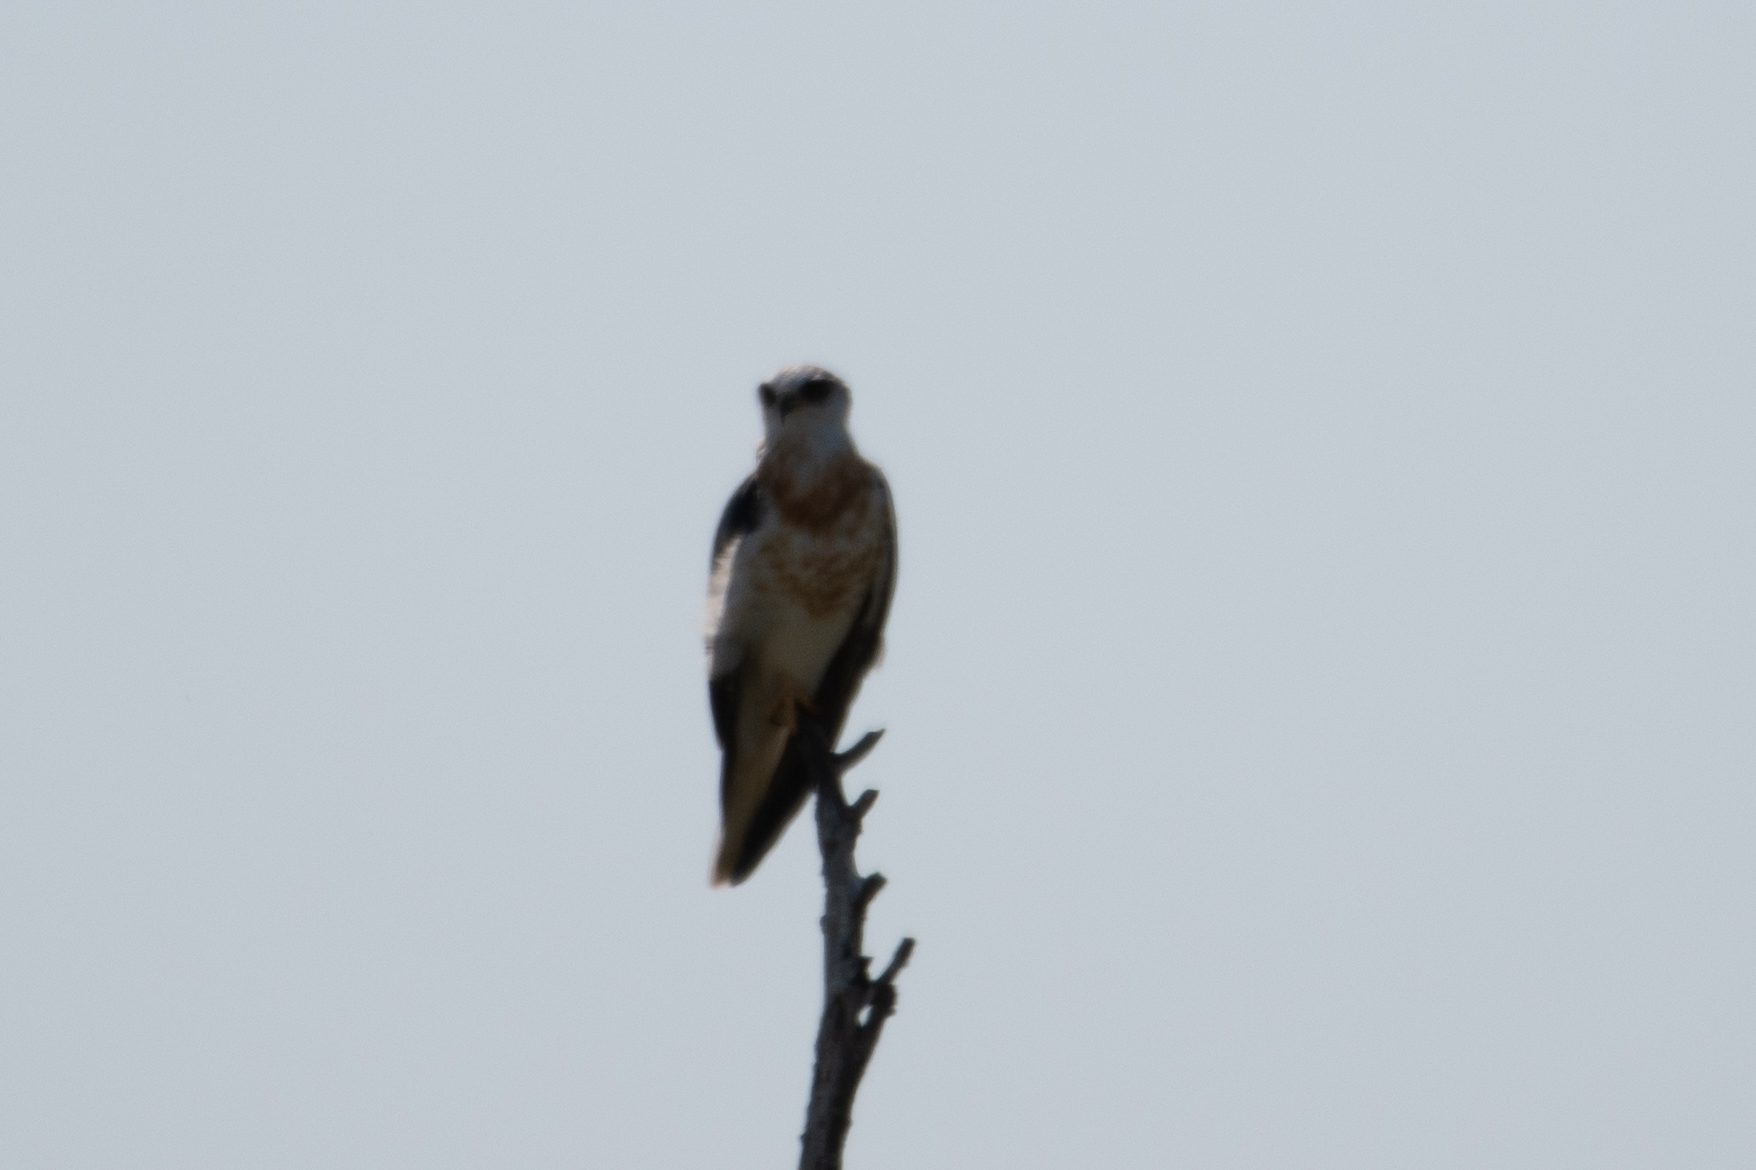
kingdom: Animalia
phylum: Chordata
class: Aves
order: Accipitriformes
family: Accipitridae
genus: Elanus
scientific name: Elanus leucurus
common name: White-tailed kite
